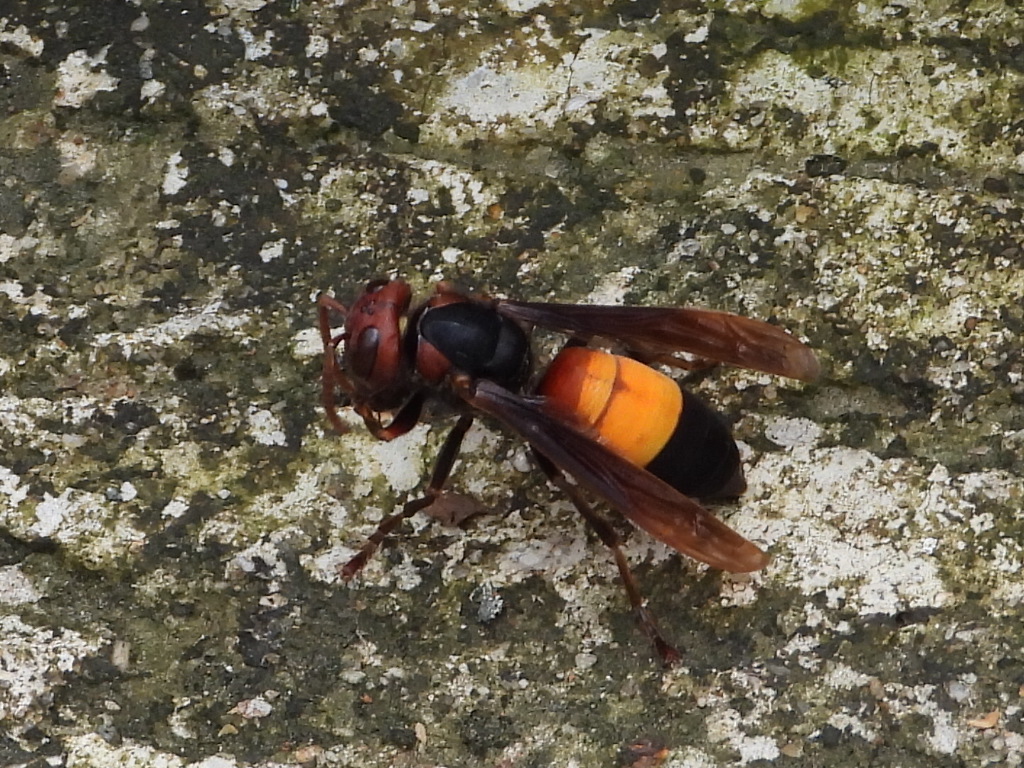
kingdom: Animalia
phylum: Arthropoda
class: Insecta
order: Hymenoptera
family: Vespidae
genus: Vespa
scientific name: Vespa affinis
